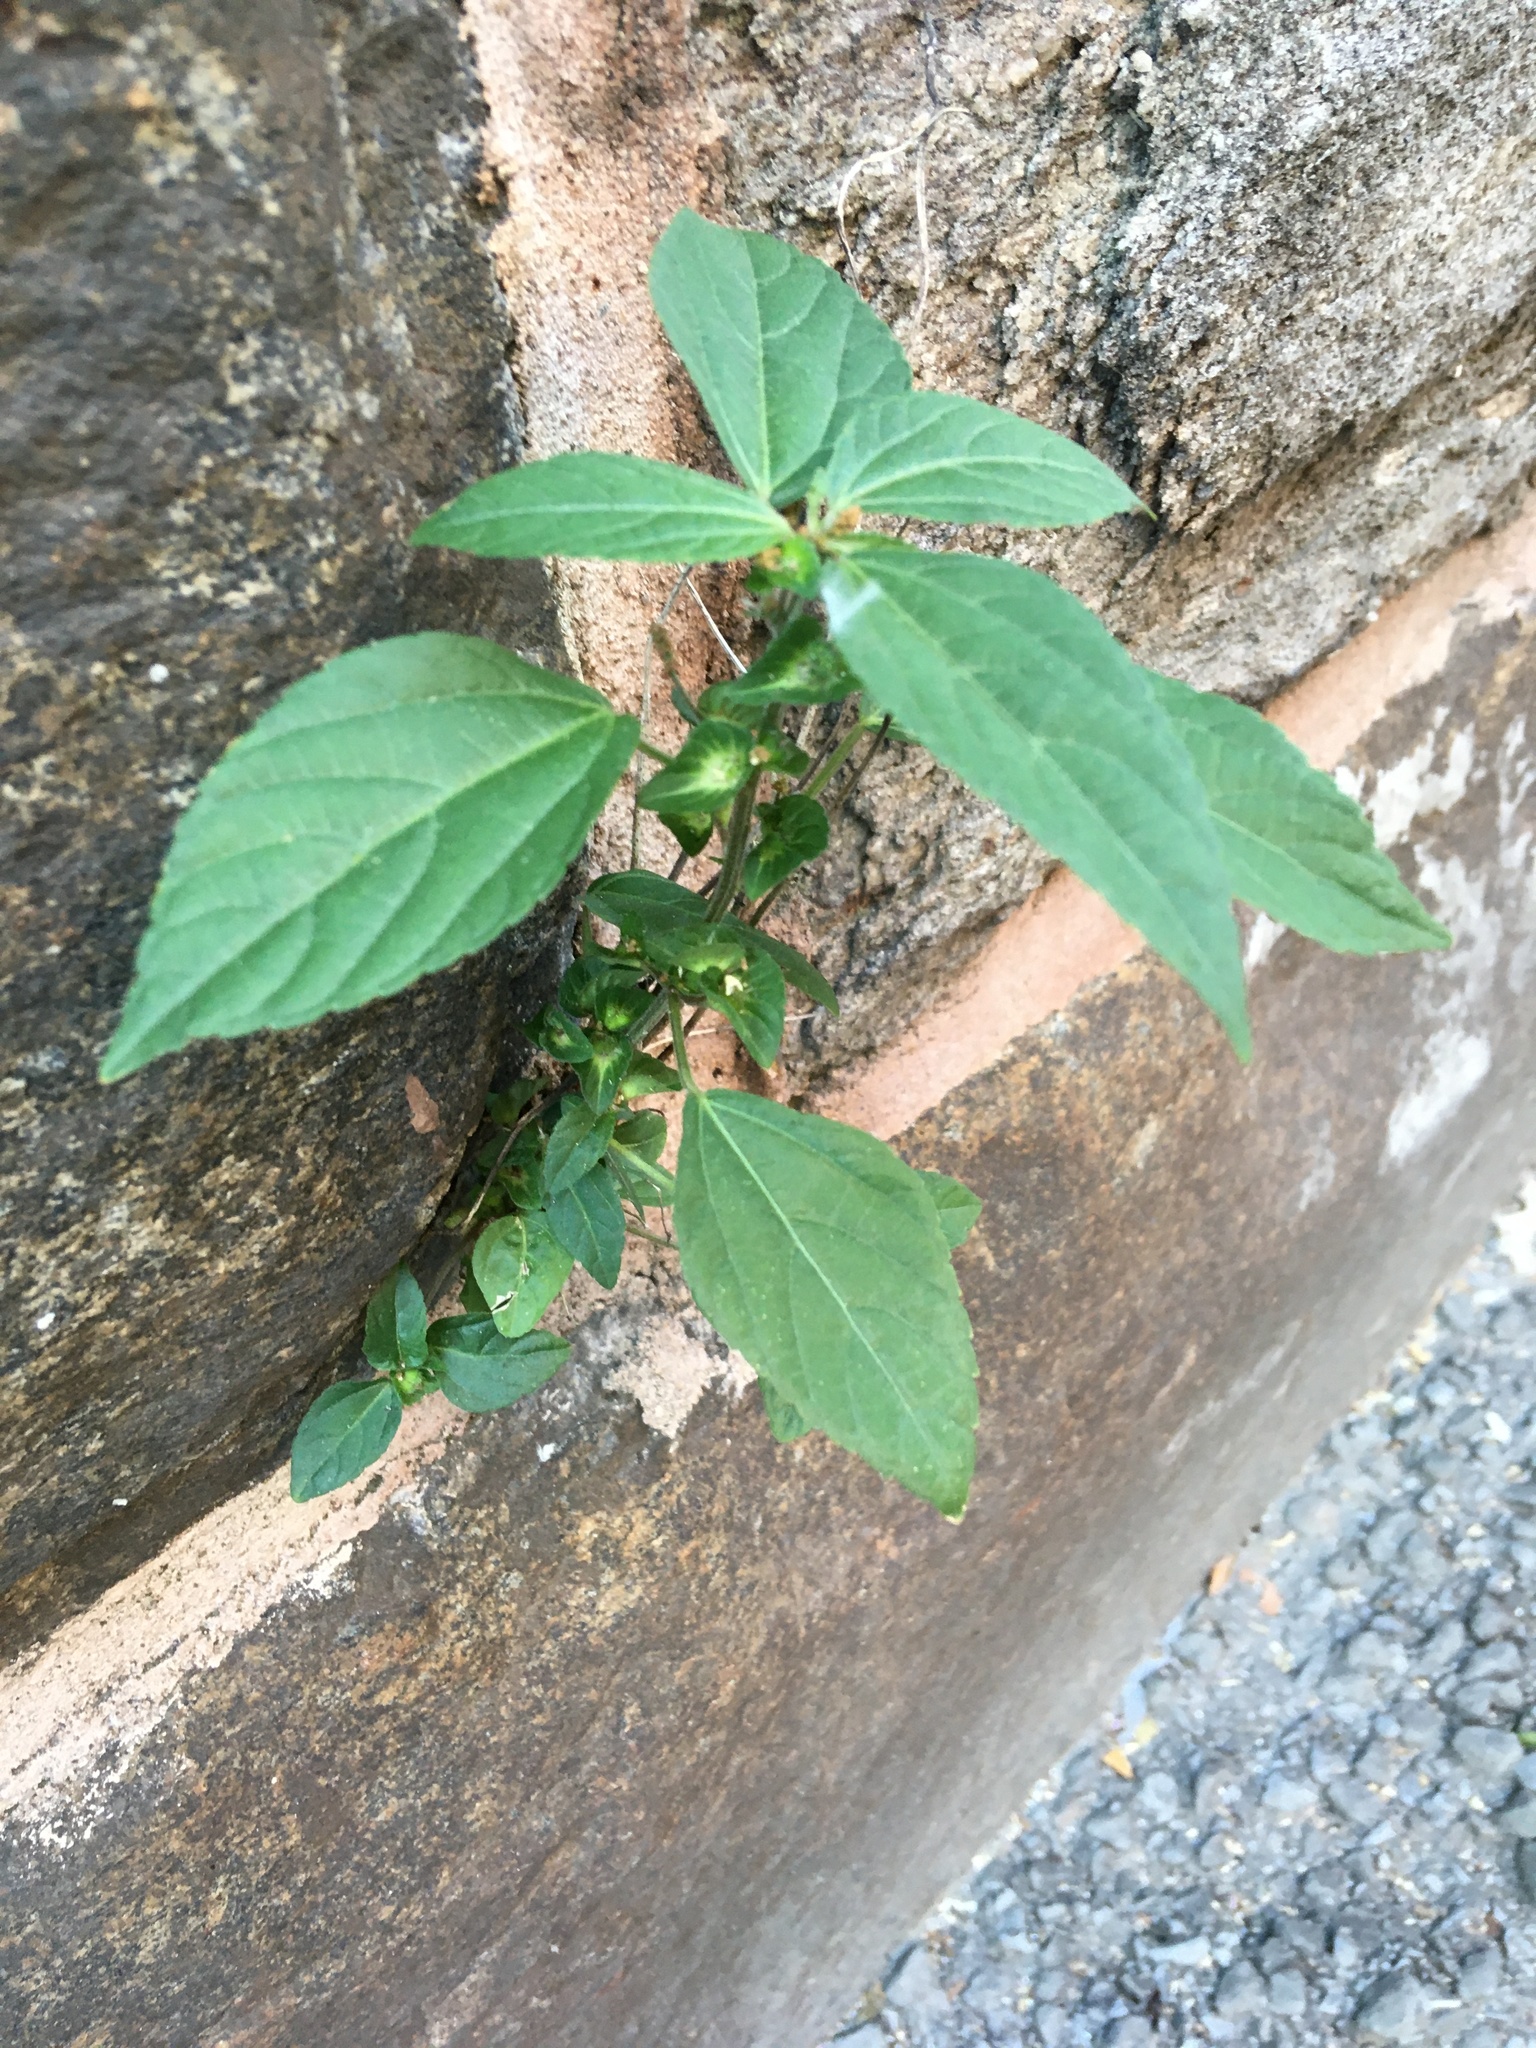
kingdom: Plantae
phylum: Tracheophyta
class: Magnoliopsida
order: Malpighiales
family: Euphorbiaceae
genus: Acalypha
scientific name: Acalypha australis
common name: Asian copperleaf
